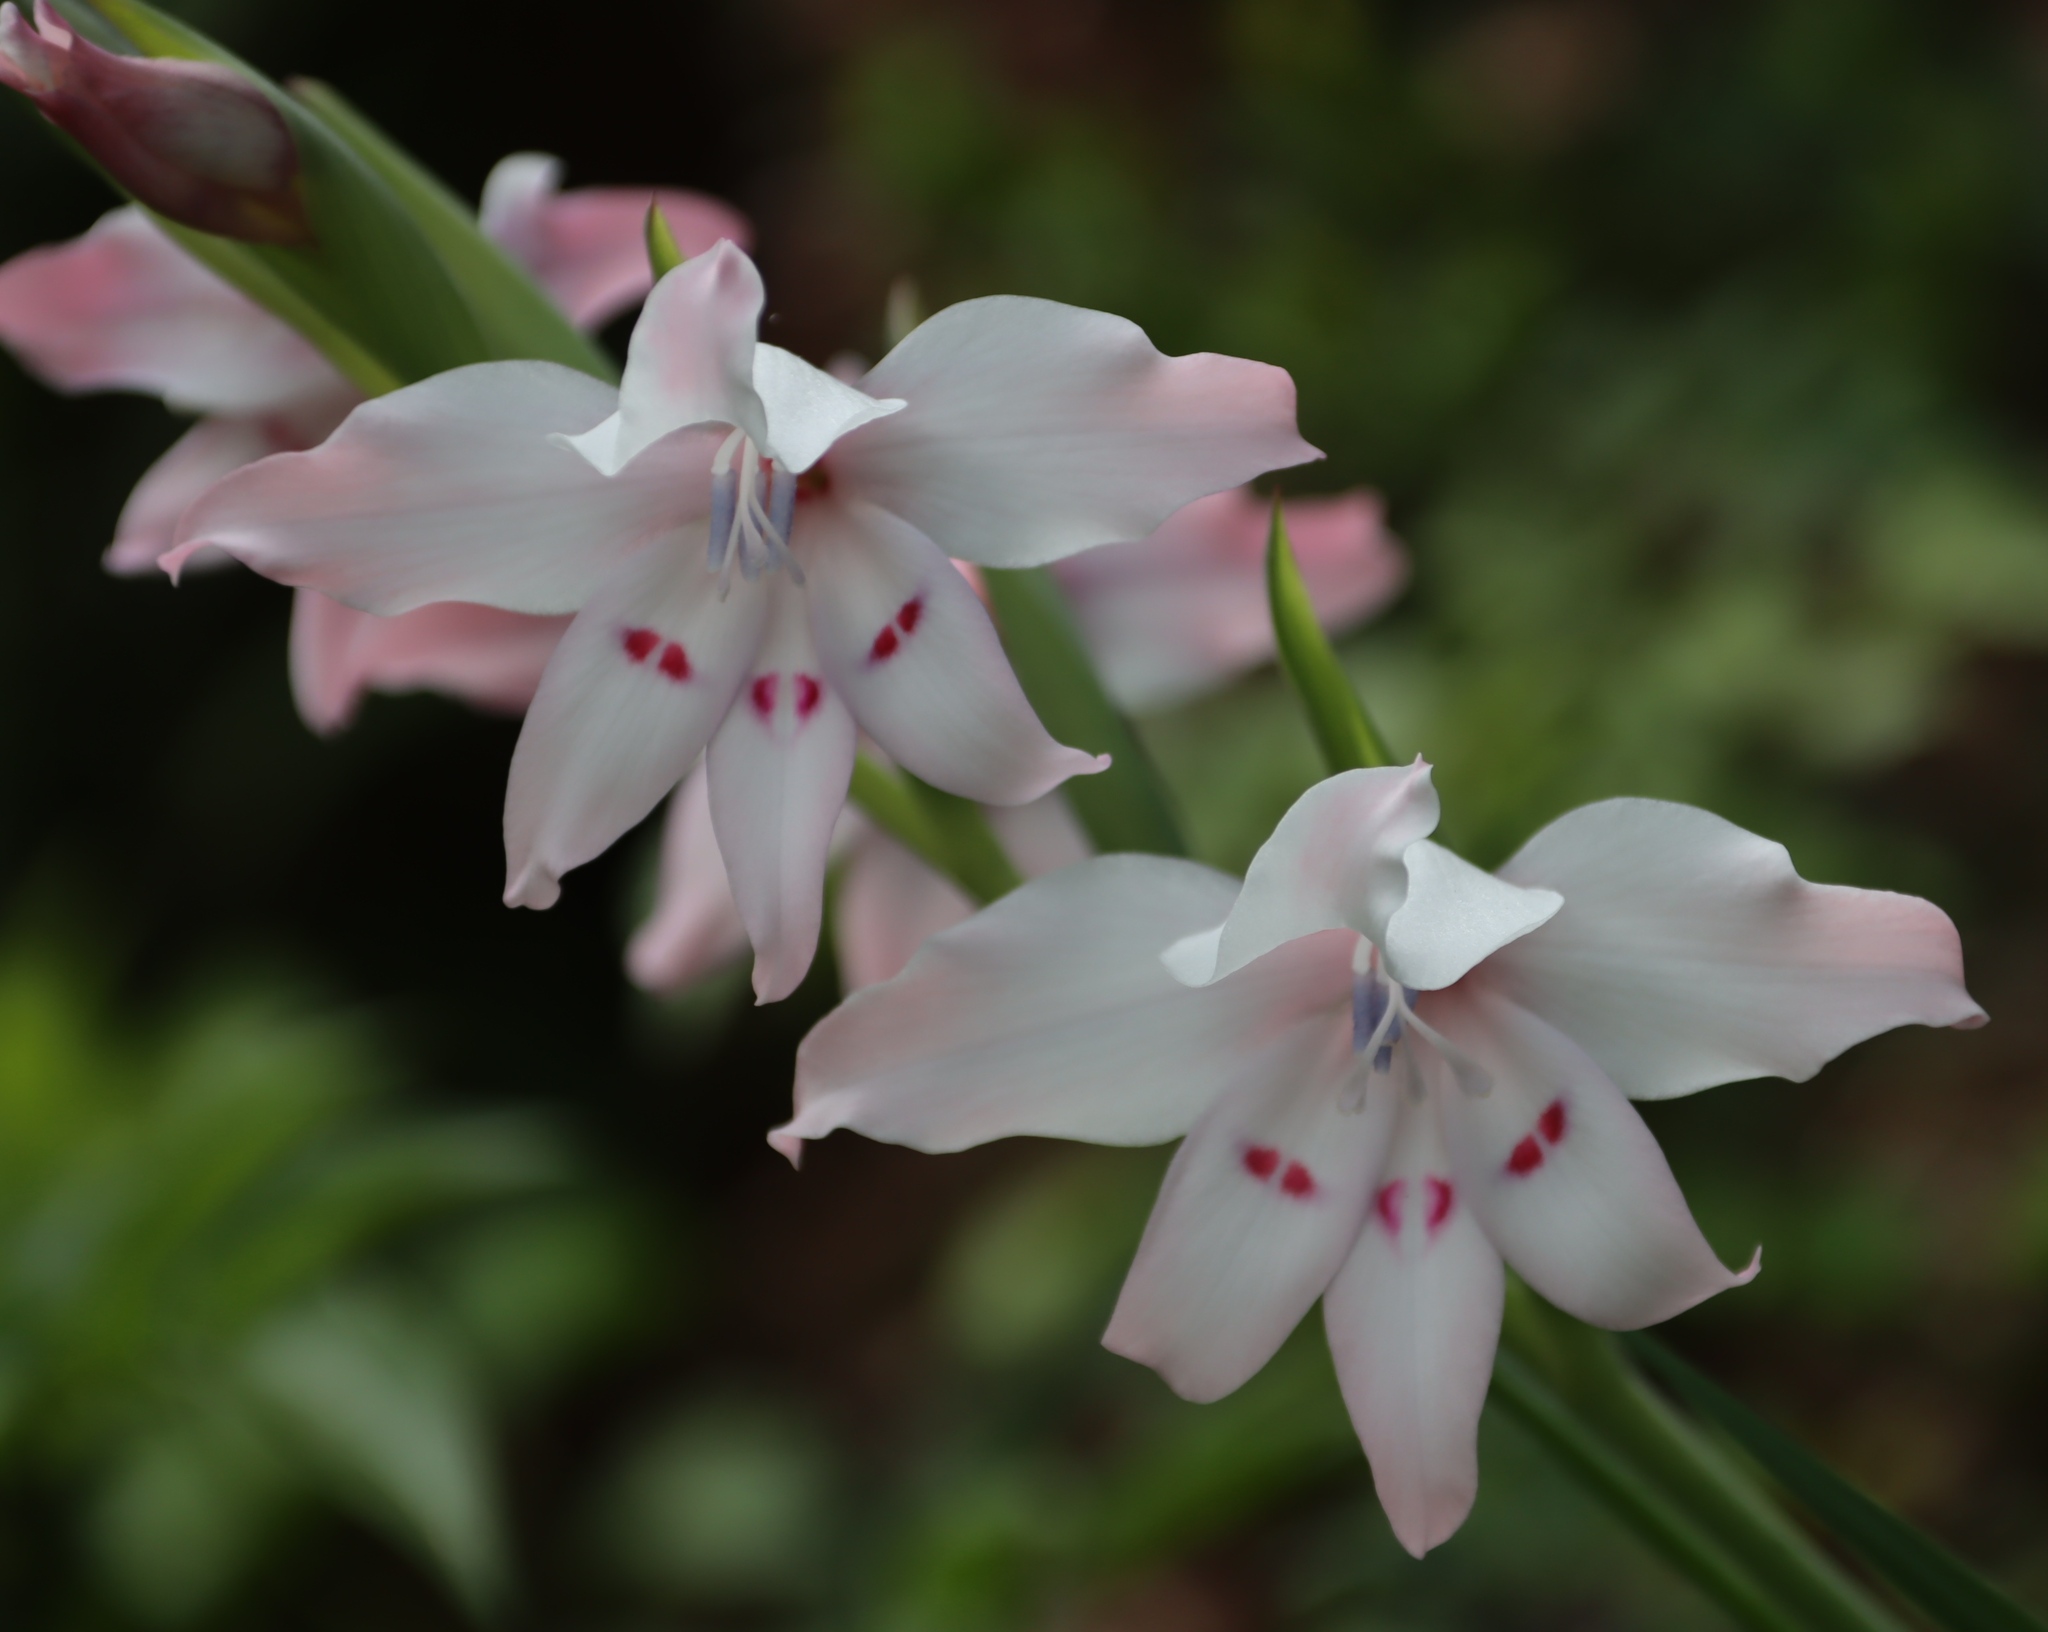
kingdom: Plantae
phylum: Tracheophyta
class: Liliopsida
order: Asparagales
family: Iridaceae
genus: Gladiolus
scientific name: Gladiolus carneus
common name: Painted-lady
